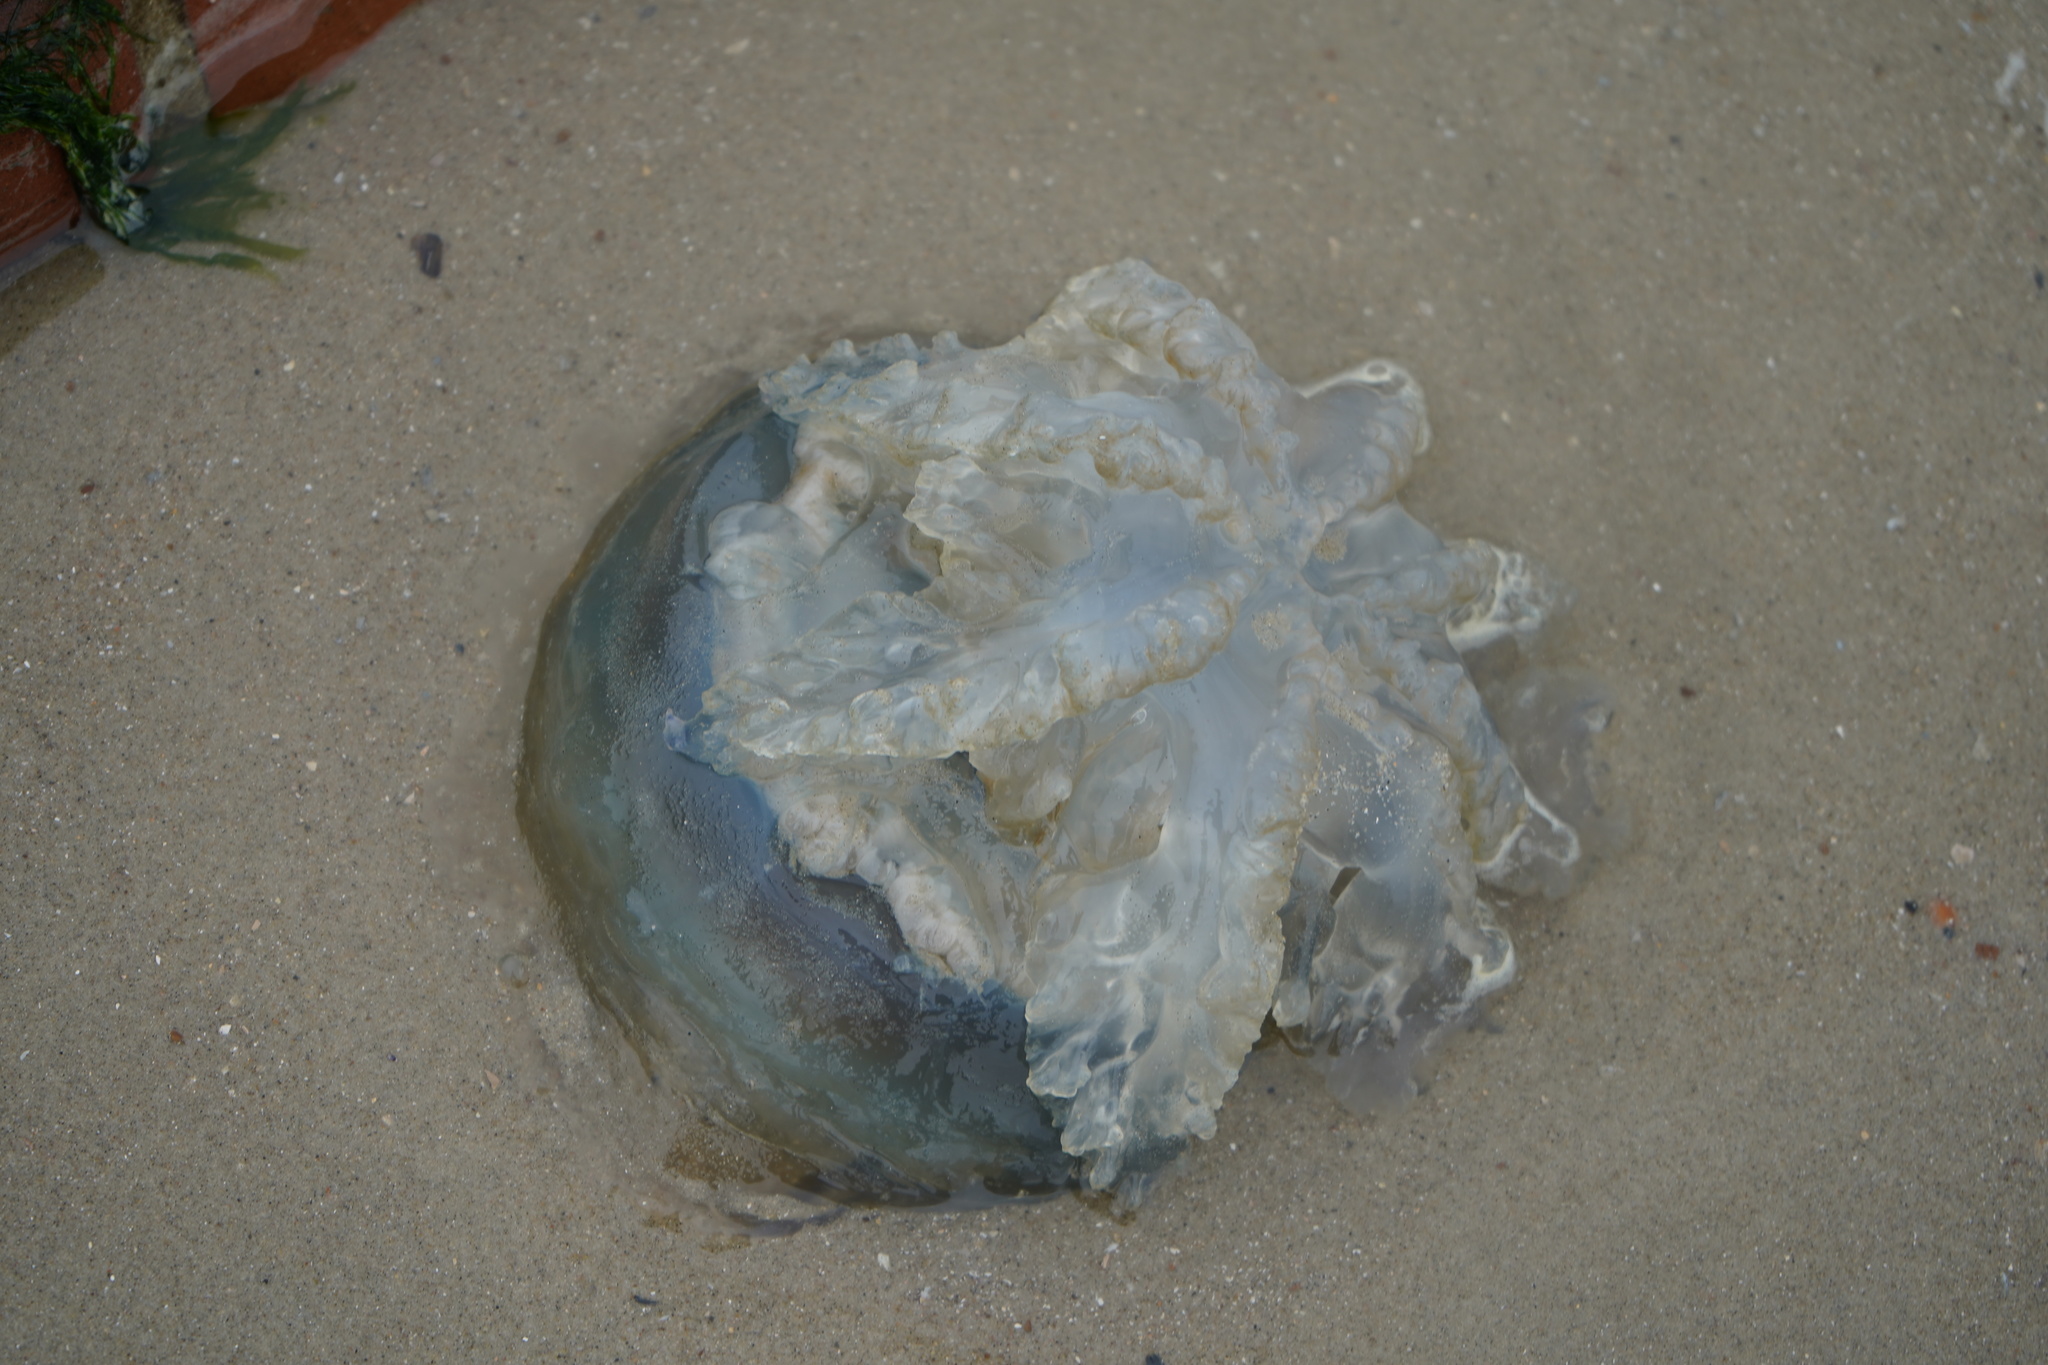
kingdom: Animalia
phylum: Cnidaria
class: Scyphozoa
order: Rhizostomeae
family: Rhizostomatidae
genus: Rhizostoma
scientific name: Rhizostoma octopus
